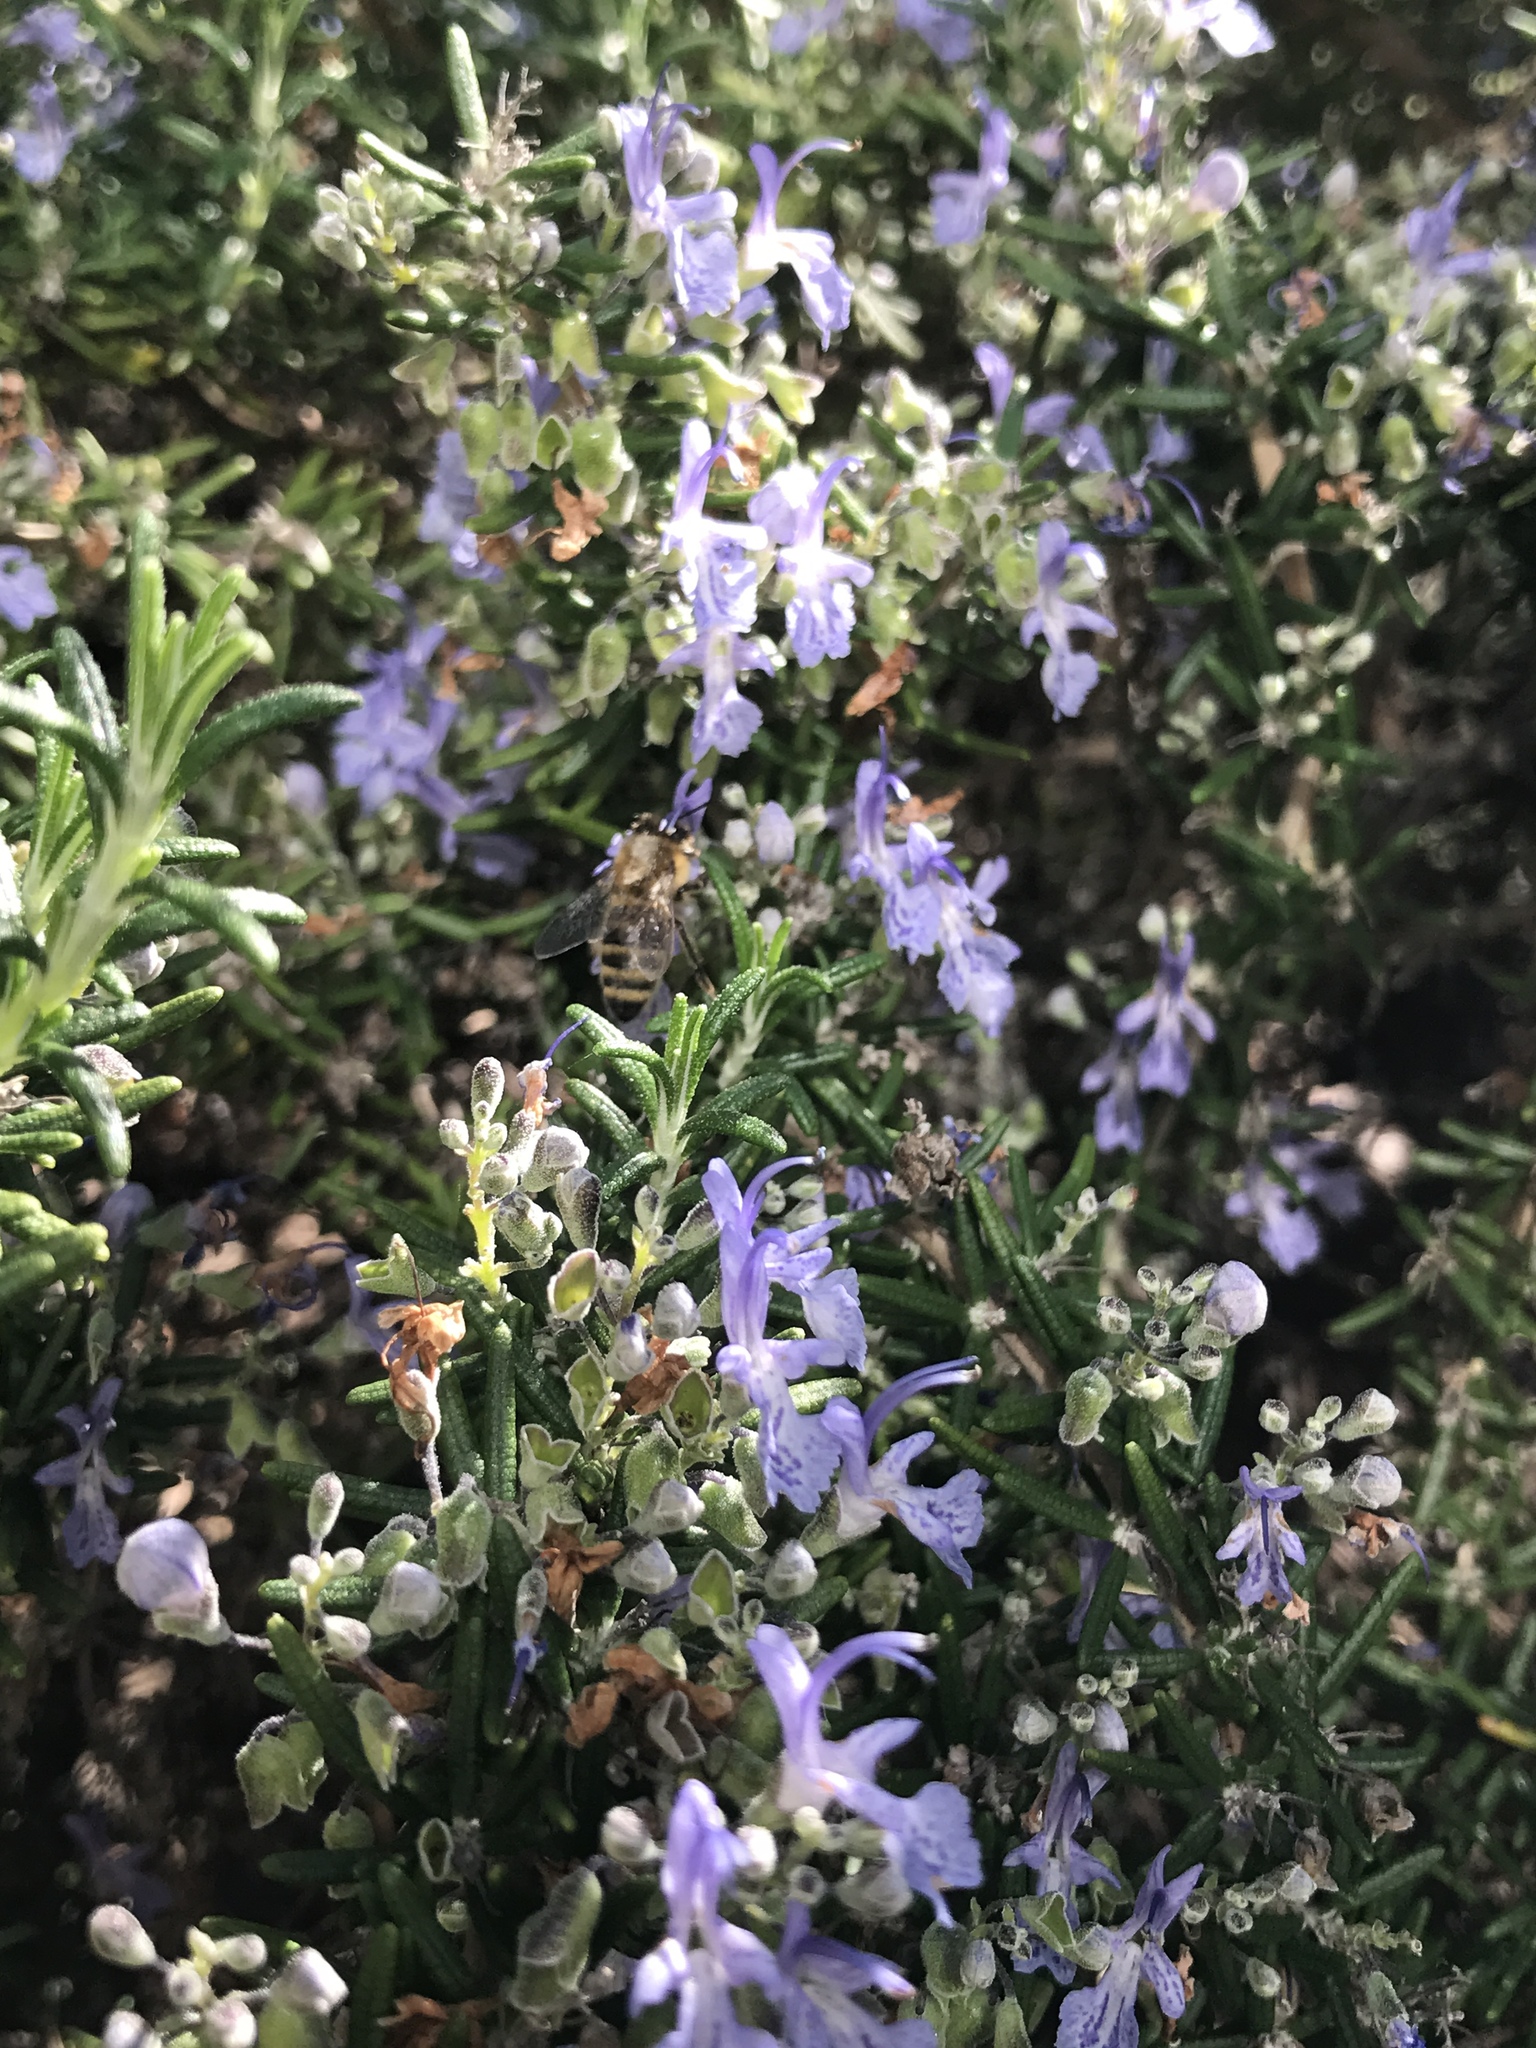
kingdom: Animalia
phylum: Arthropoda
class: Insecta
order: Hymenoptera
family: Apidae
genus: Apis
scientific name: Apis mellifera
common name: Honey bee
